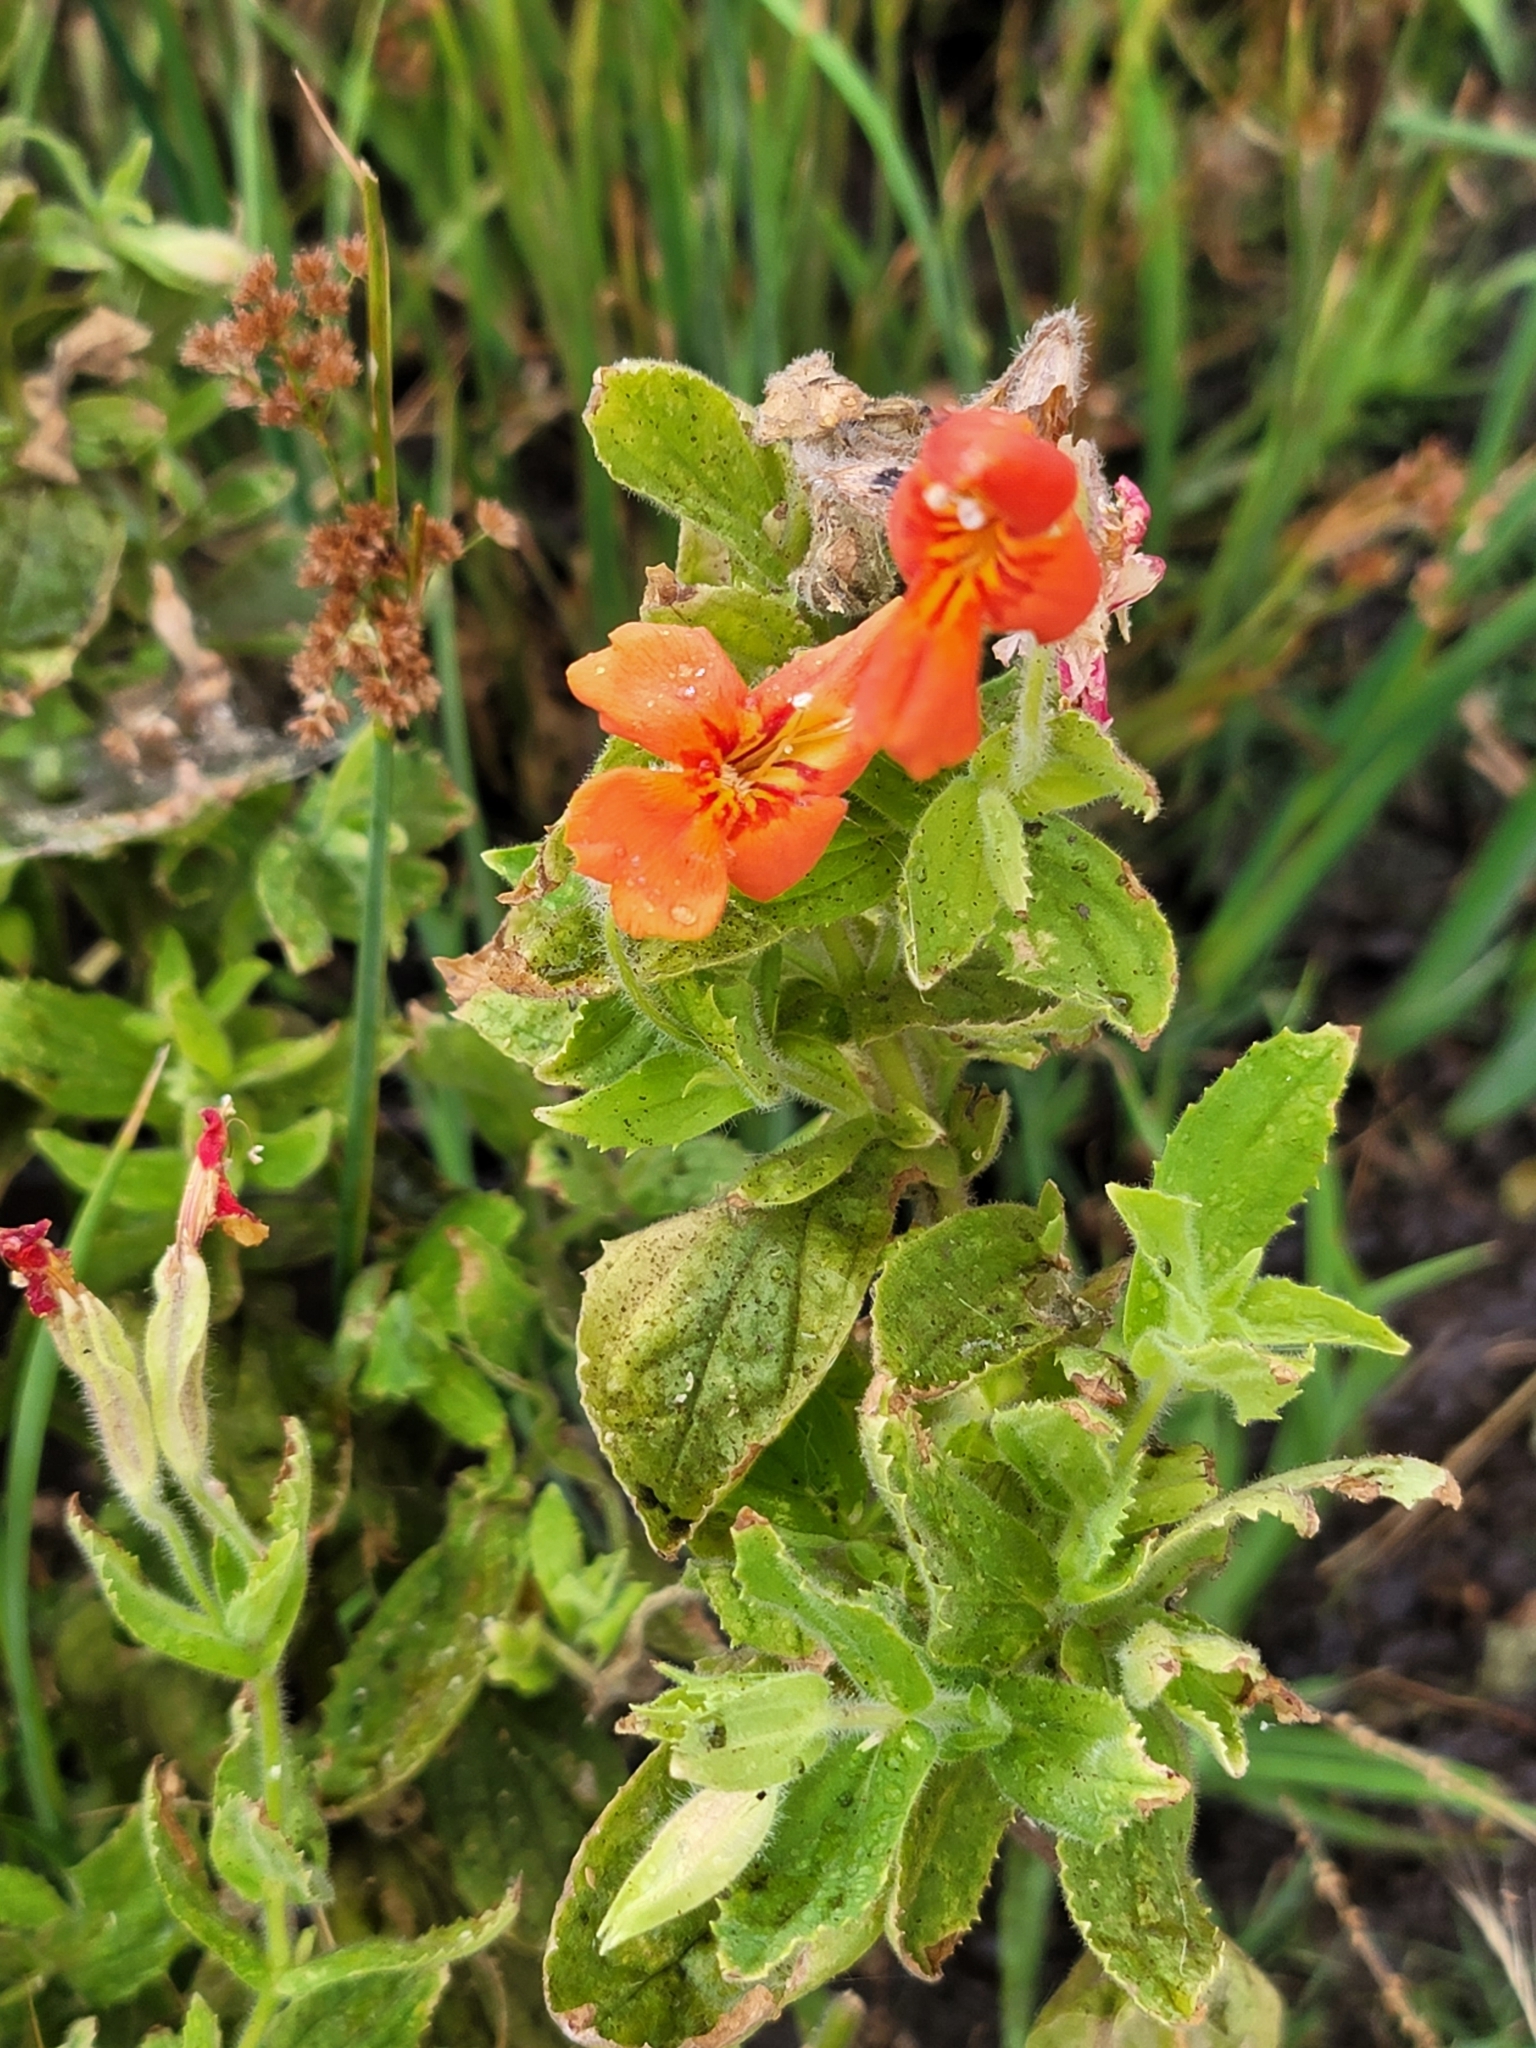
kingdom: Plantae
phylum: Tracheophyta
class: Magnoliopsida
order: Lamiales
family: Phrymaceae
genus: Erythranthe
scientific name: Erythranthe cardinalis
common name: Scarlet monkey-flower
